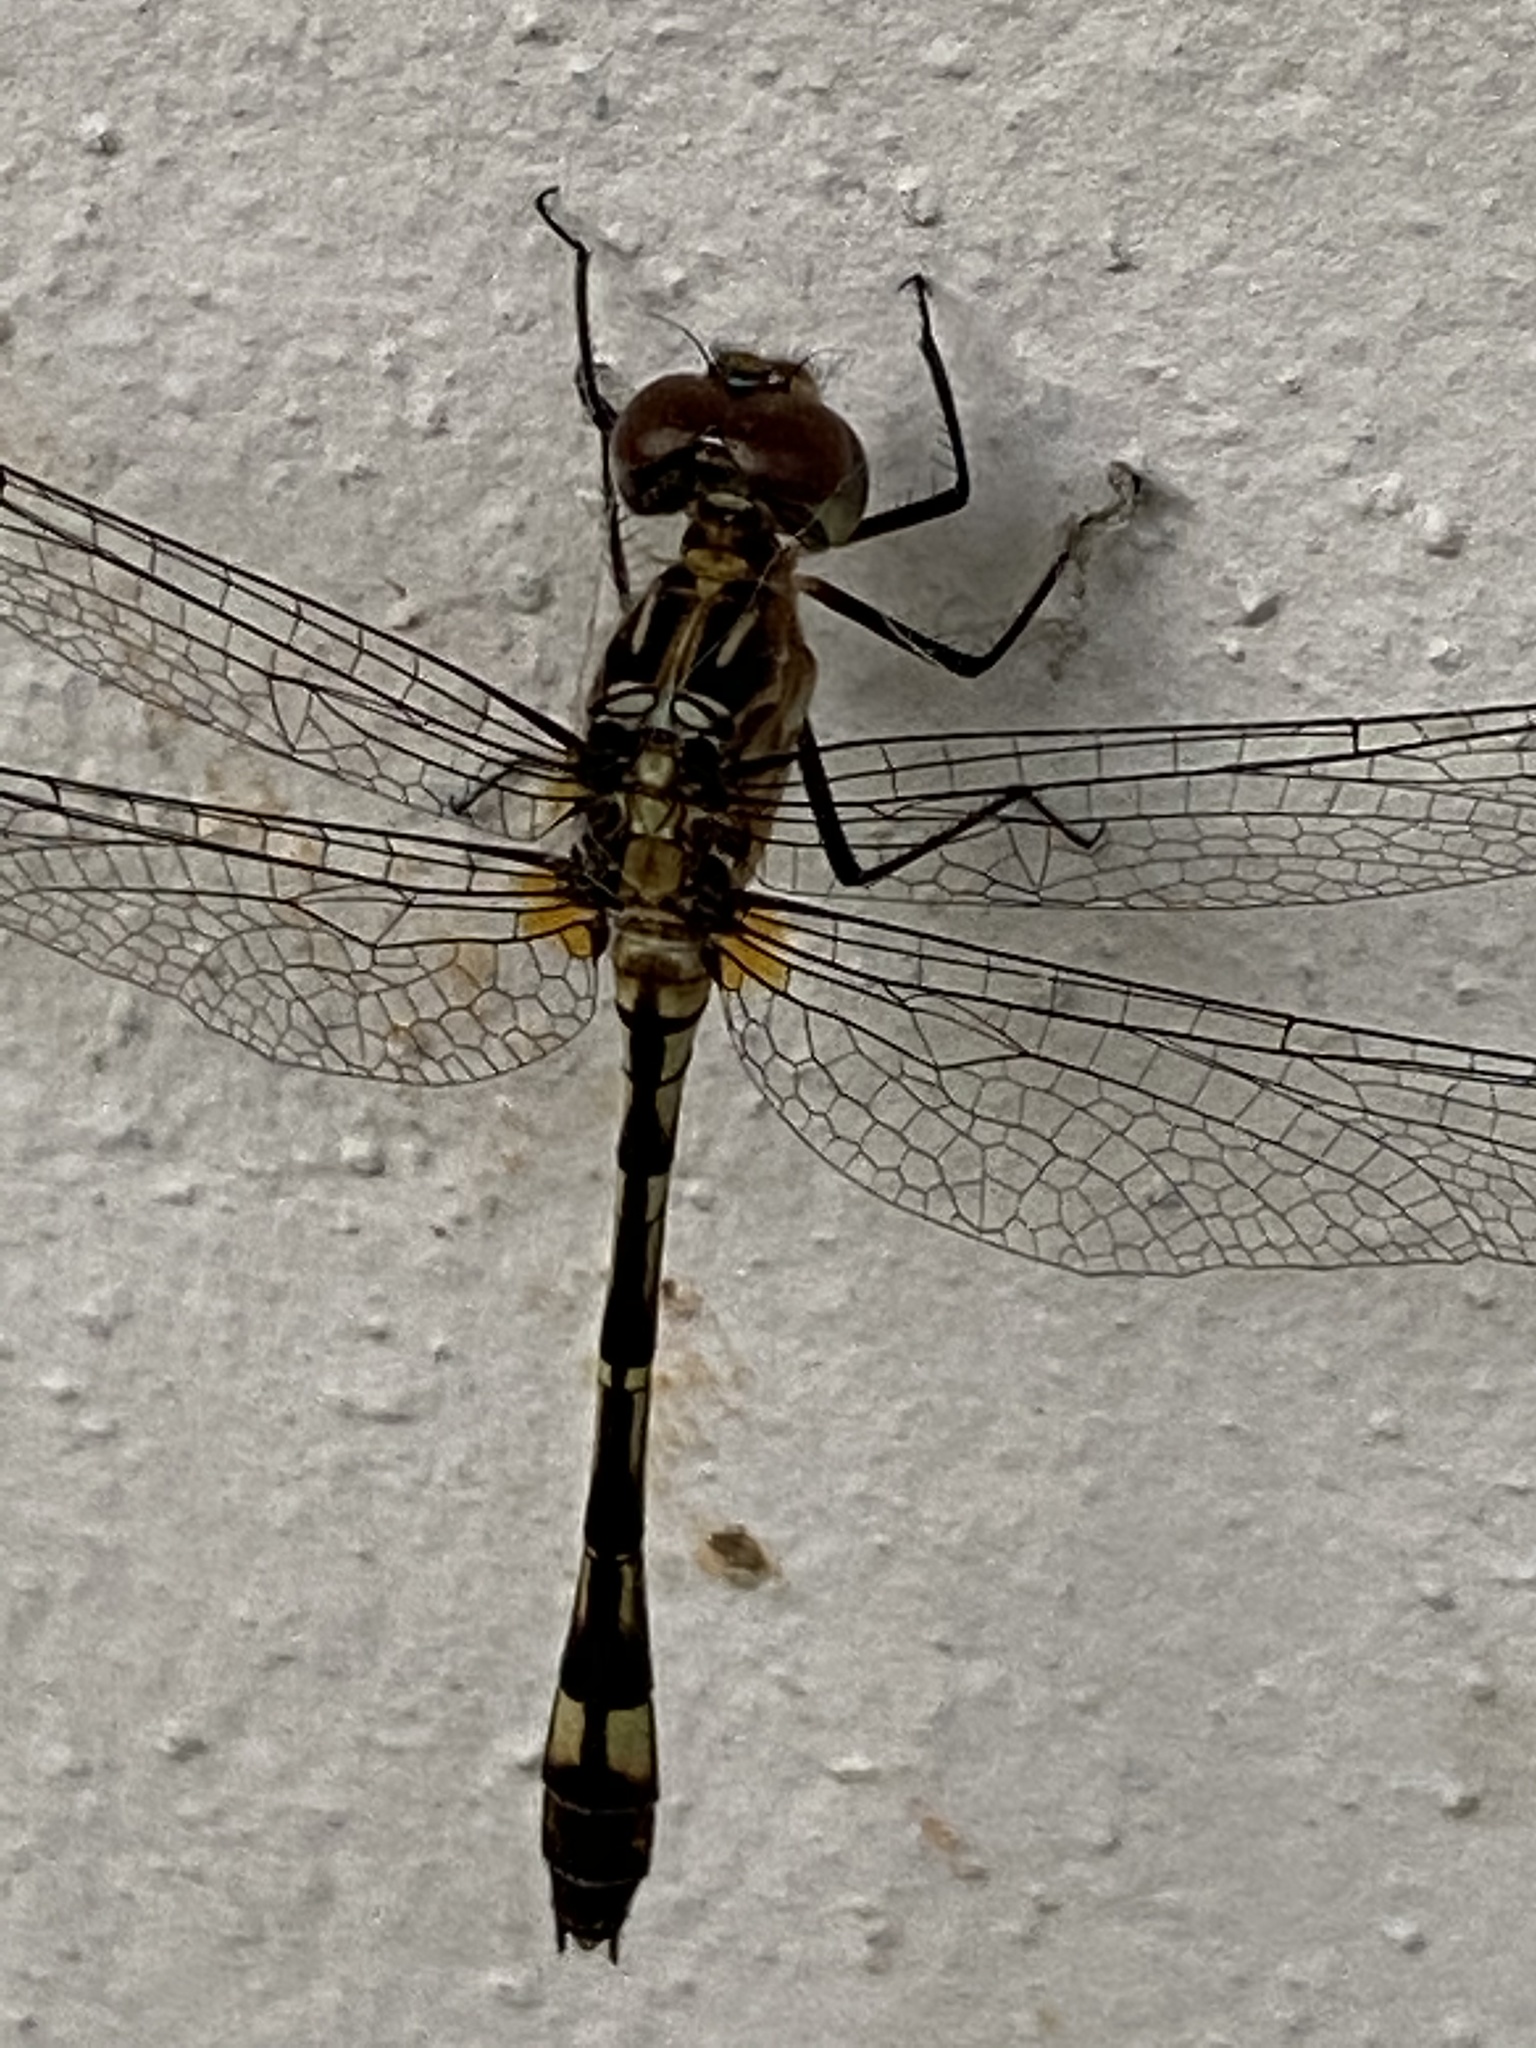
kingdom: Animalia
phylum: Arthropoda
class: Insecta
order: Odonata
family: Libellulidae
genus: Micrathyria
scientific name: Micrathyria catenata
